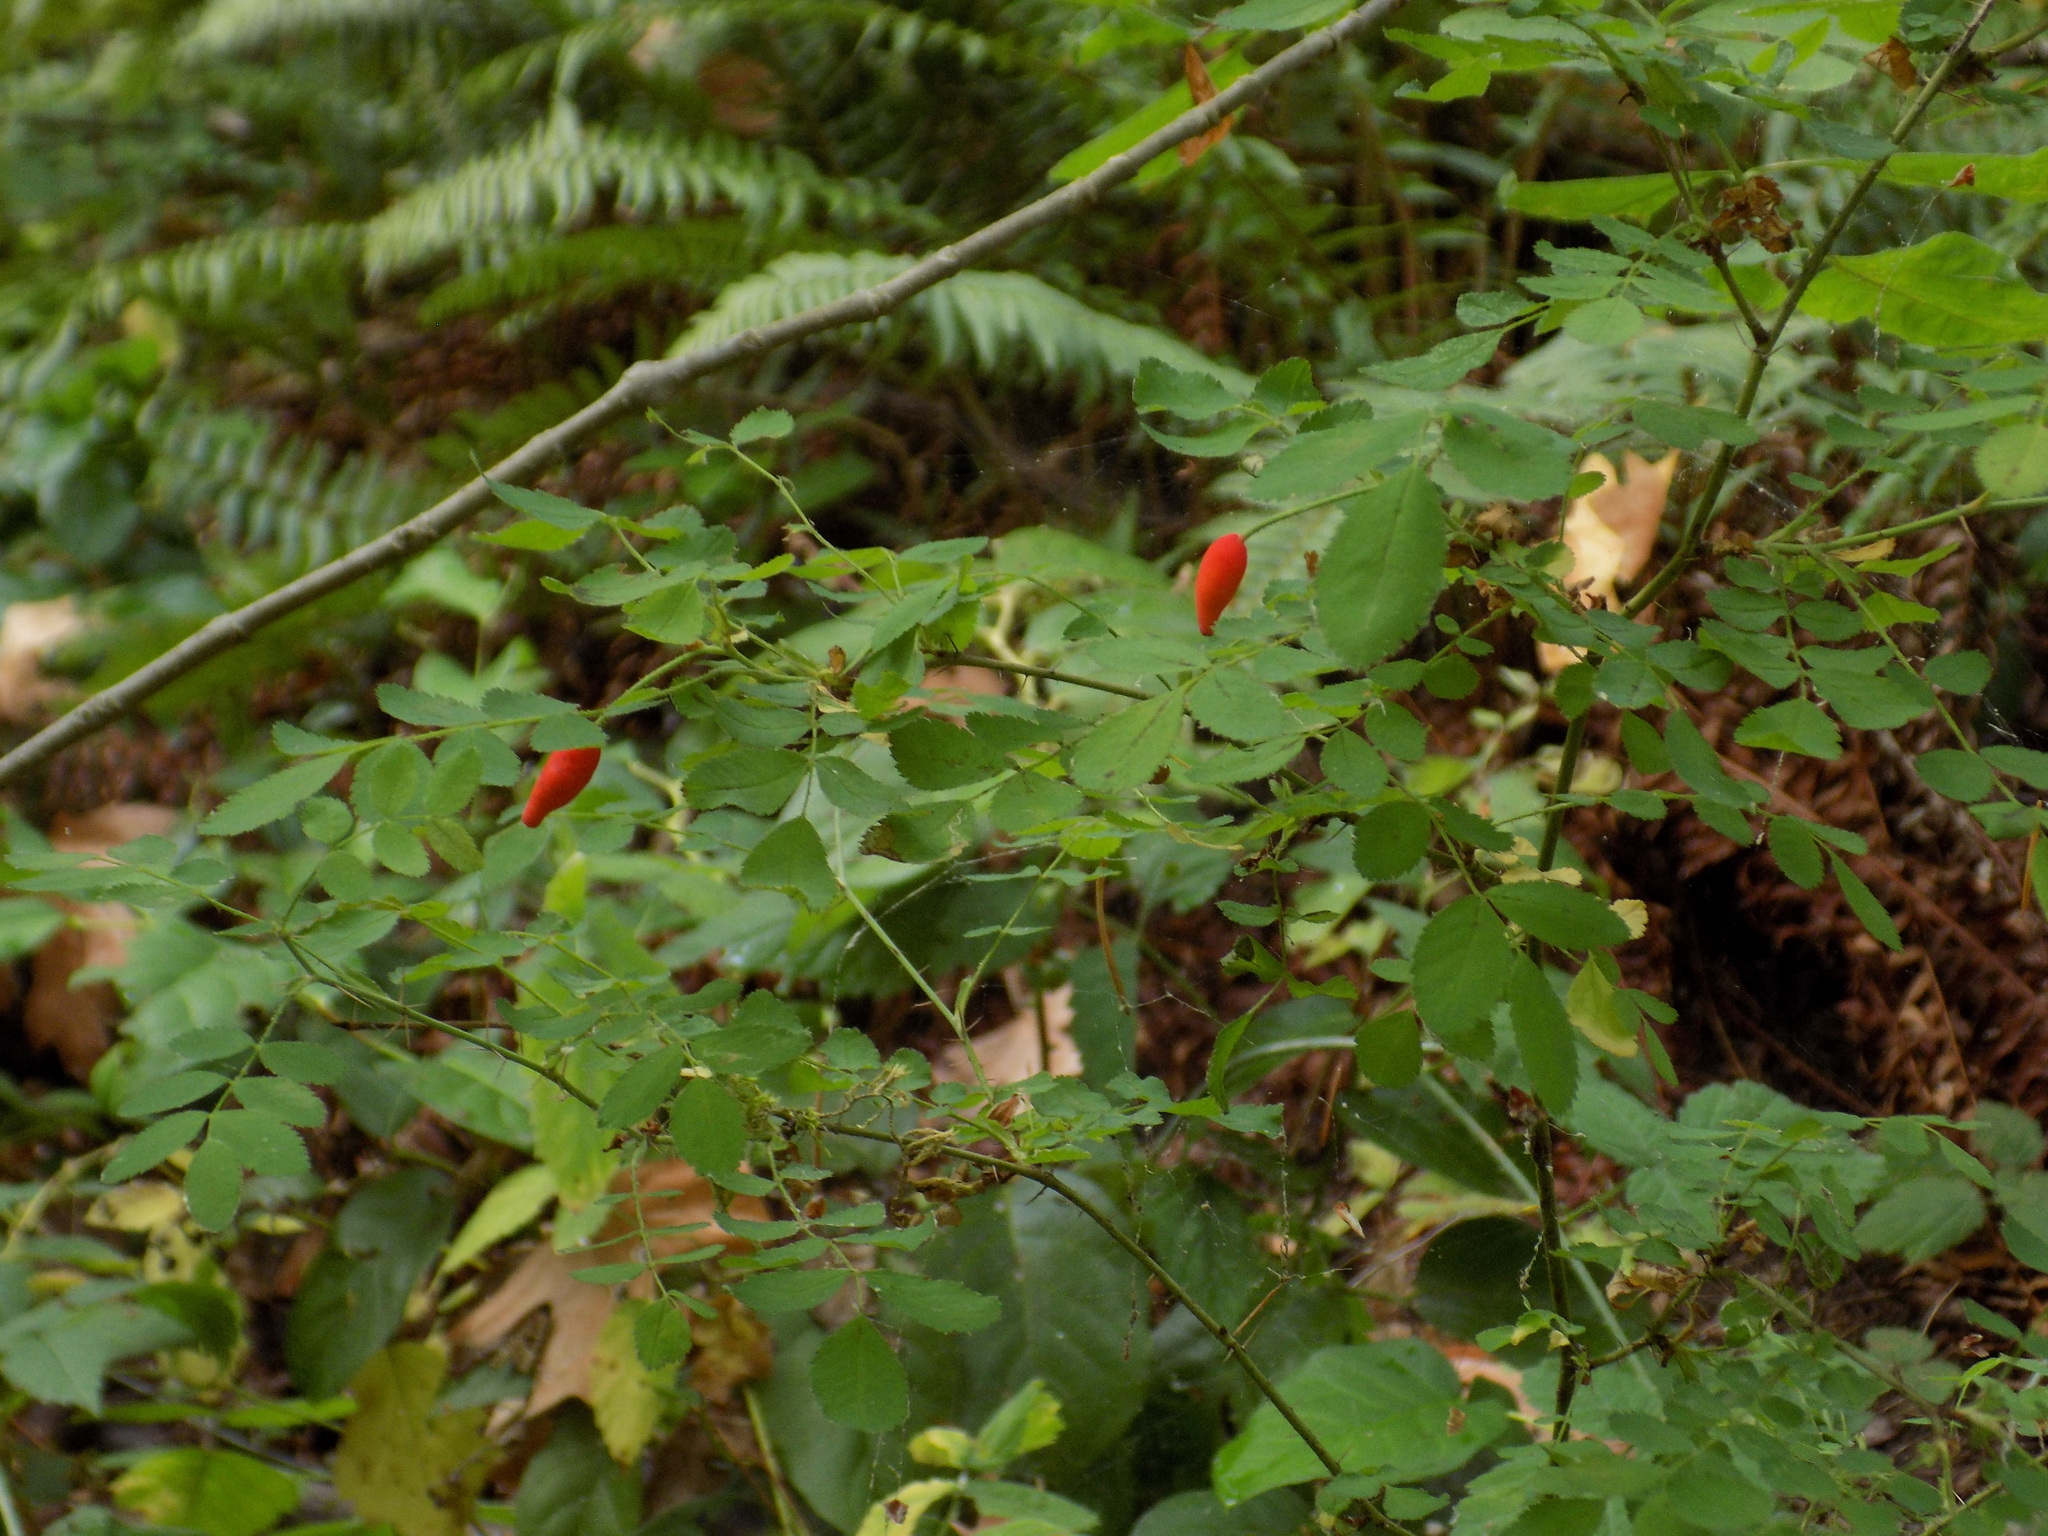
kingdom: Plantae
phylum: Tracheophyta
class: Magnoliopsida
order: Rosales
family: Rosaceae
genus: Rosa
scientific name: Rosa gymnocarpa
